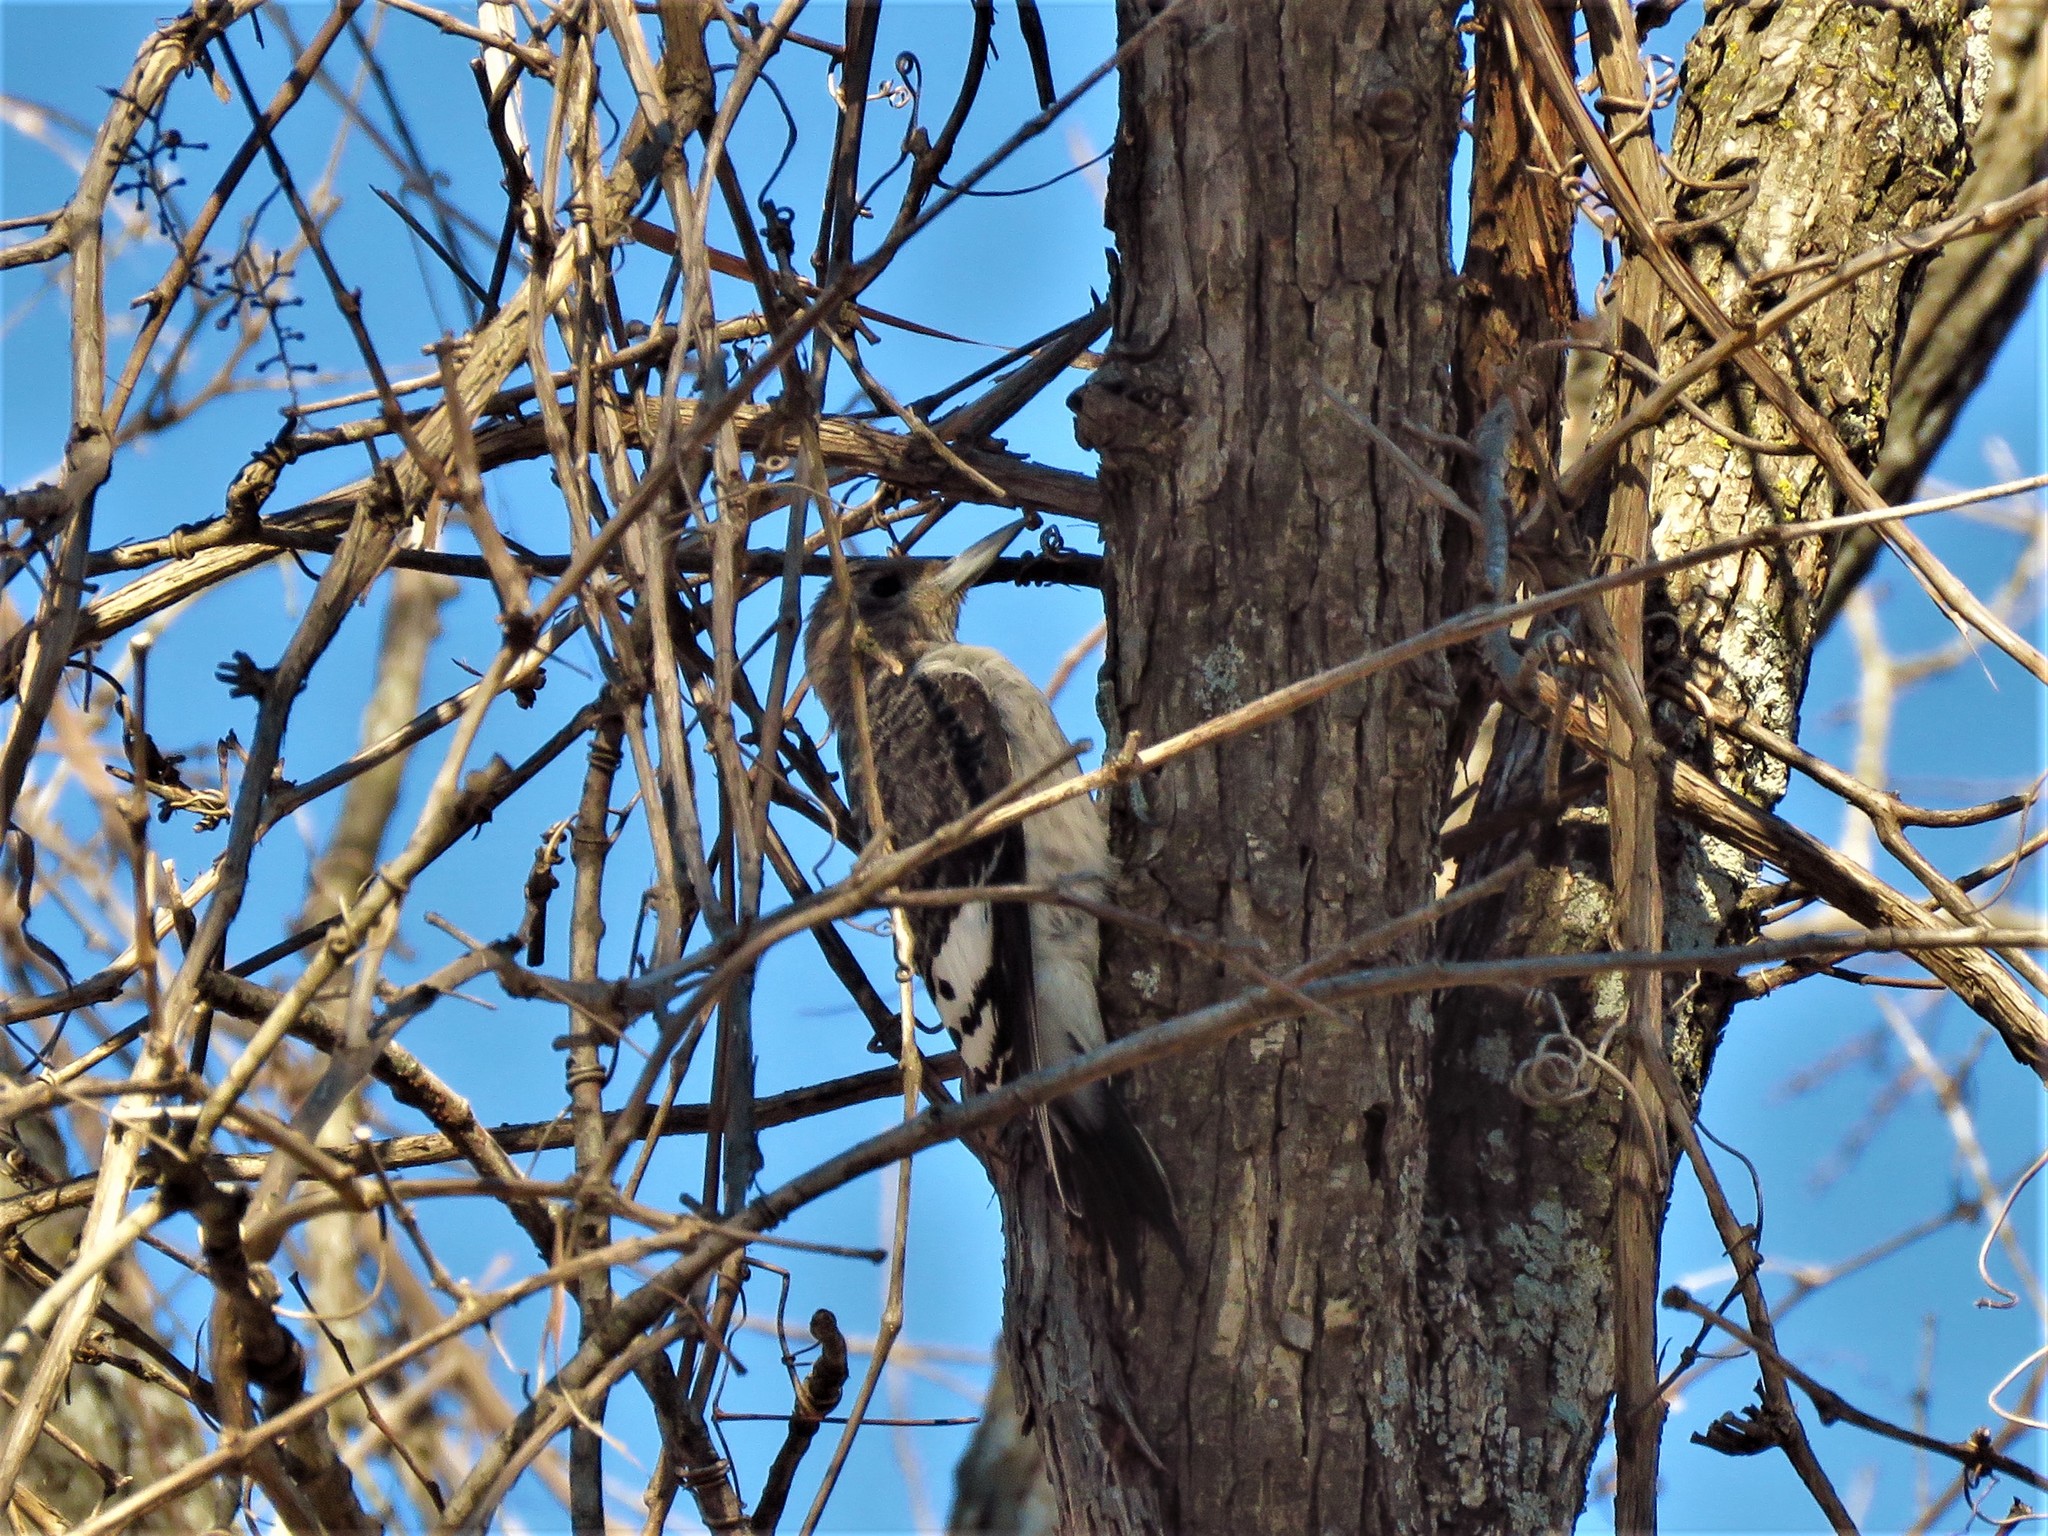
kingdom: Animalia
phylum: Chordata
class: Aves
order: Piciformes
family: Picidae
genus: Melanerpes
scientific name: Melanerpes erythrocephalus
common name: Red-headed woodpecker
